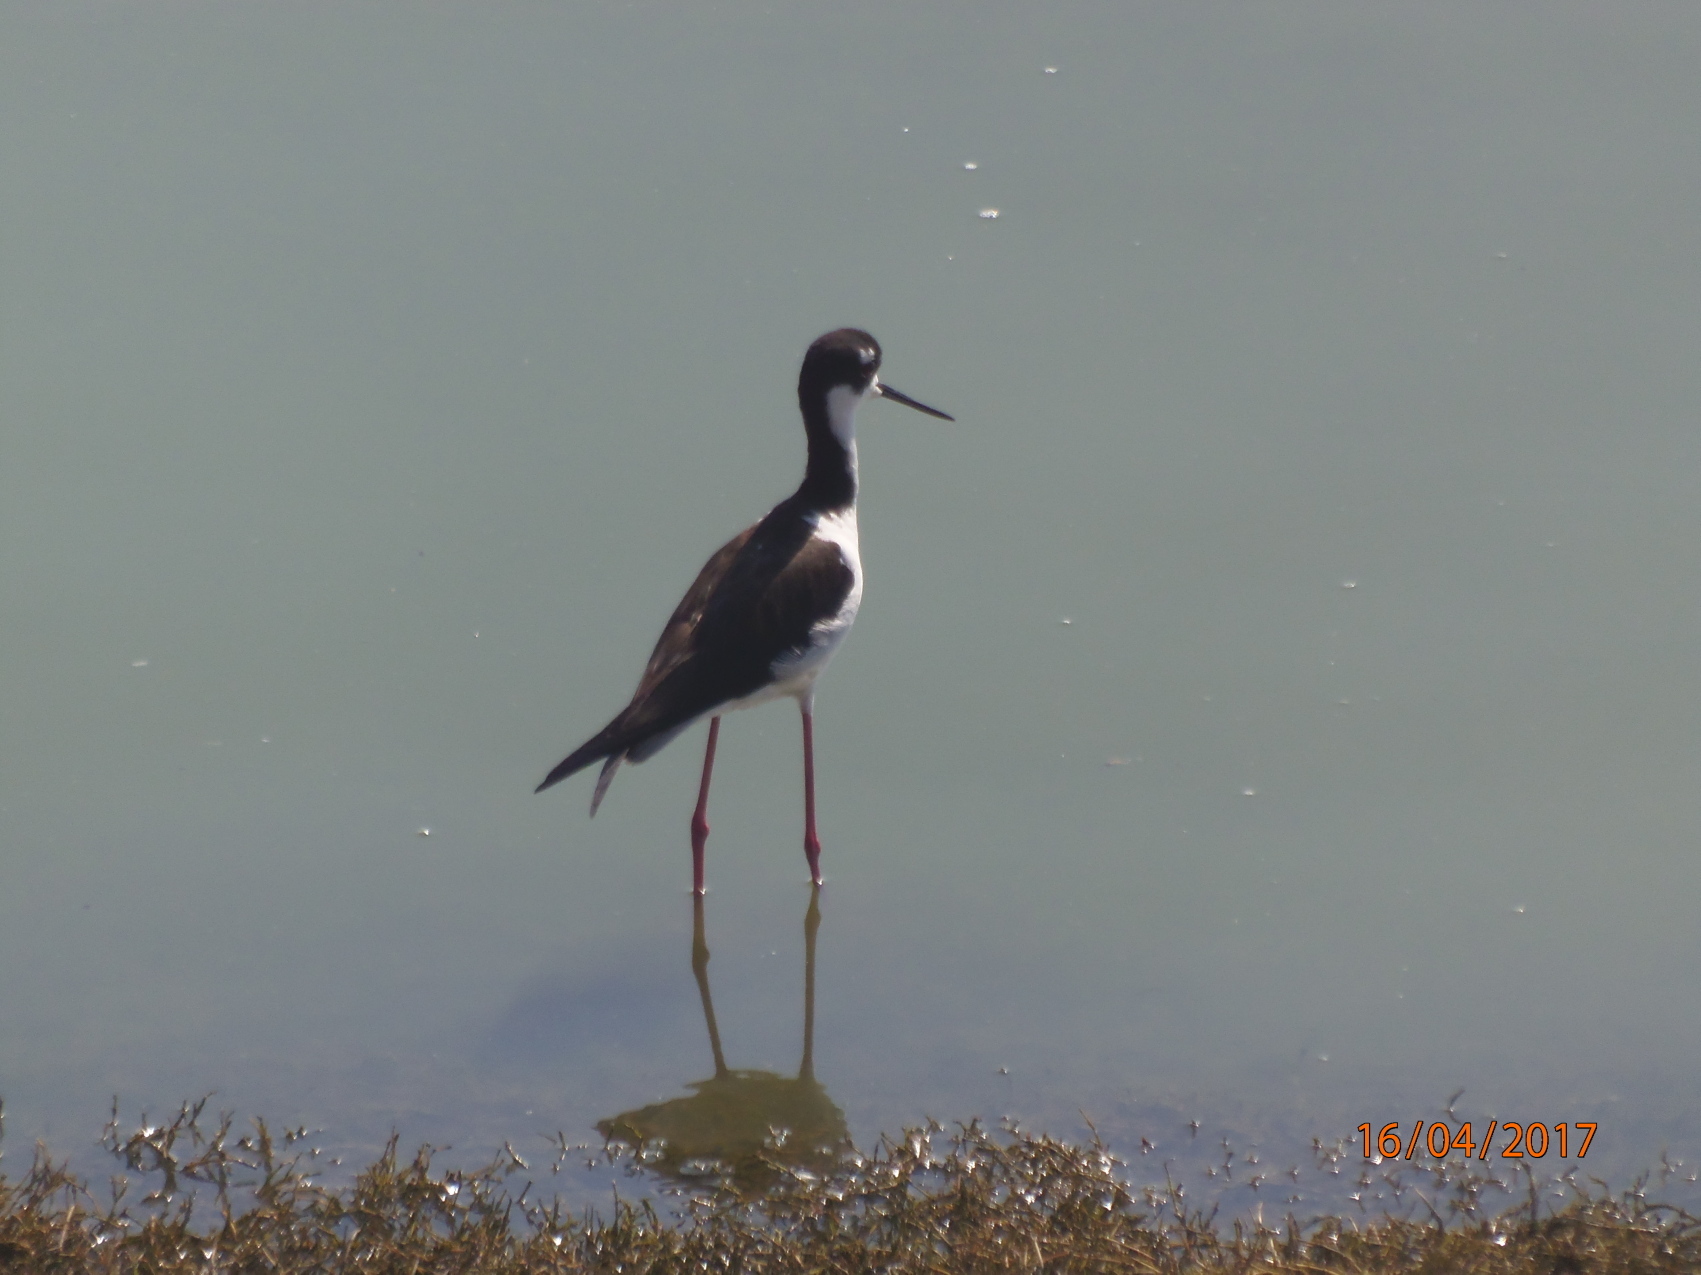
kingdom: Animalia
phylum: Chordata
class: Aves
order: Charadriiformes
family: Recurvirostridae
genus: Himantopus
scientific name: Himantopus mexicanus
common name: Black-necked stilt
